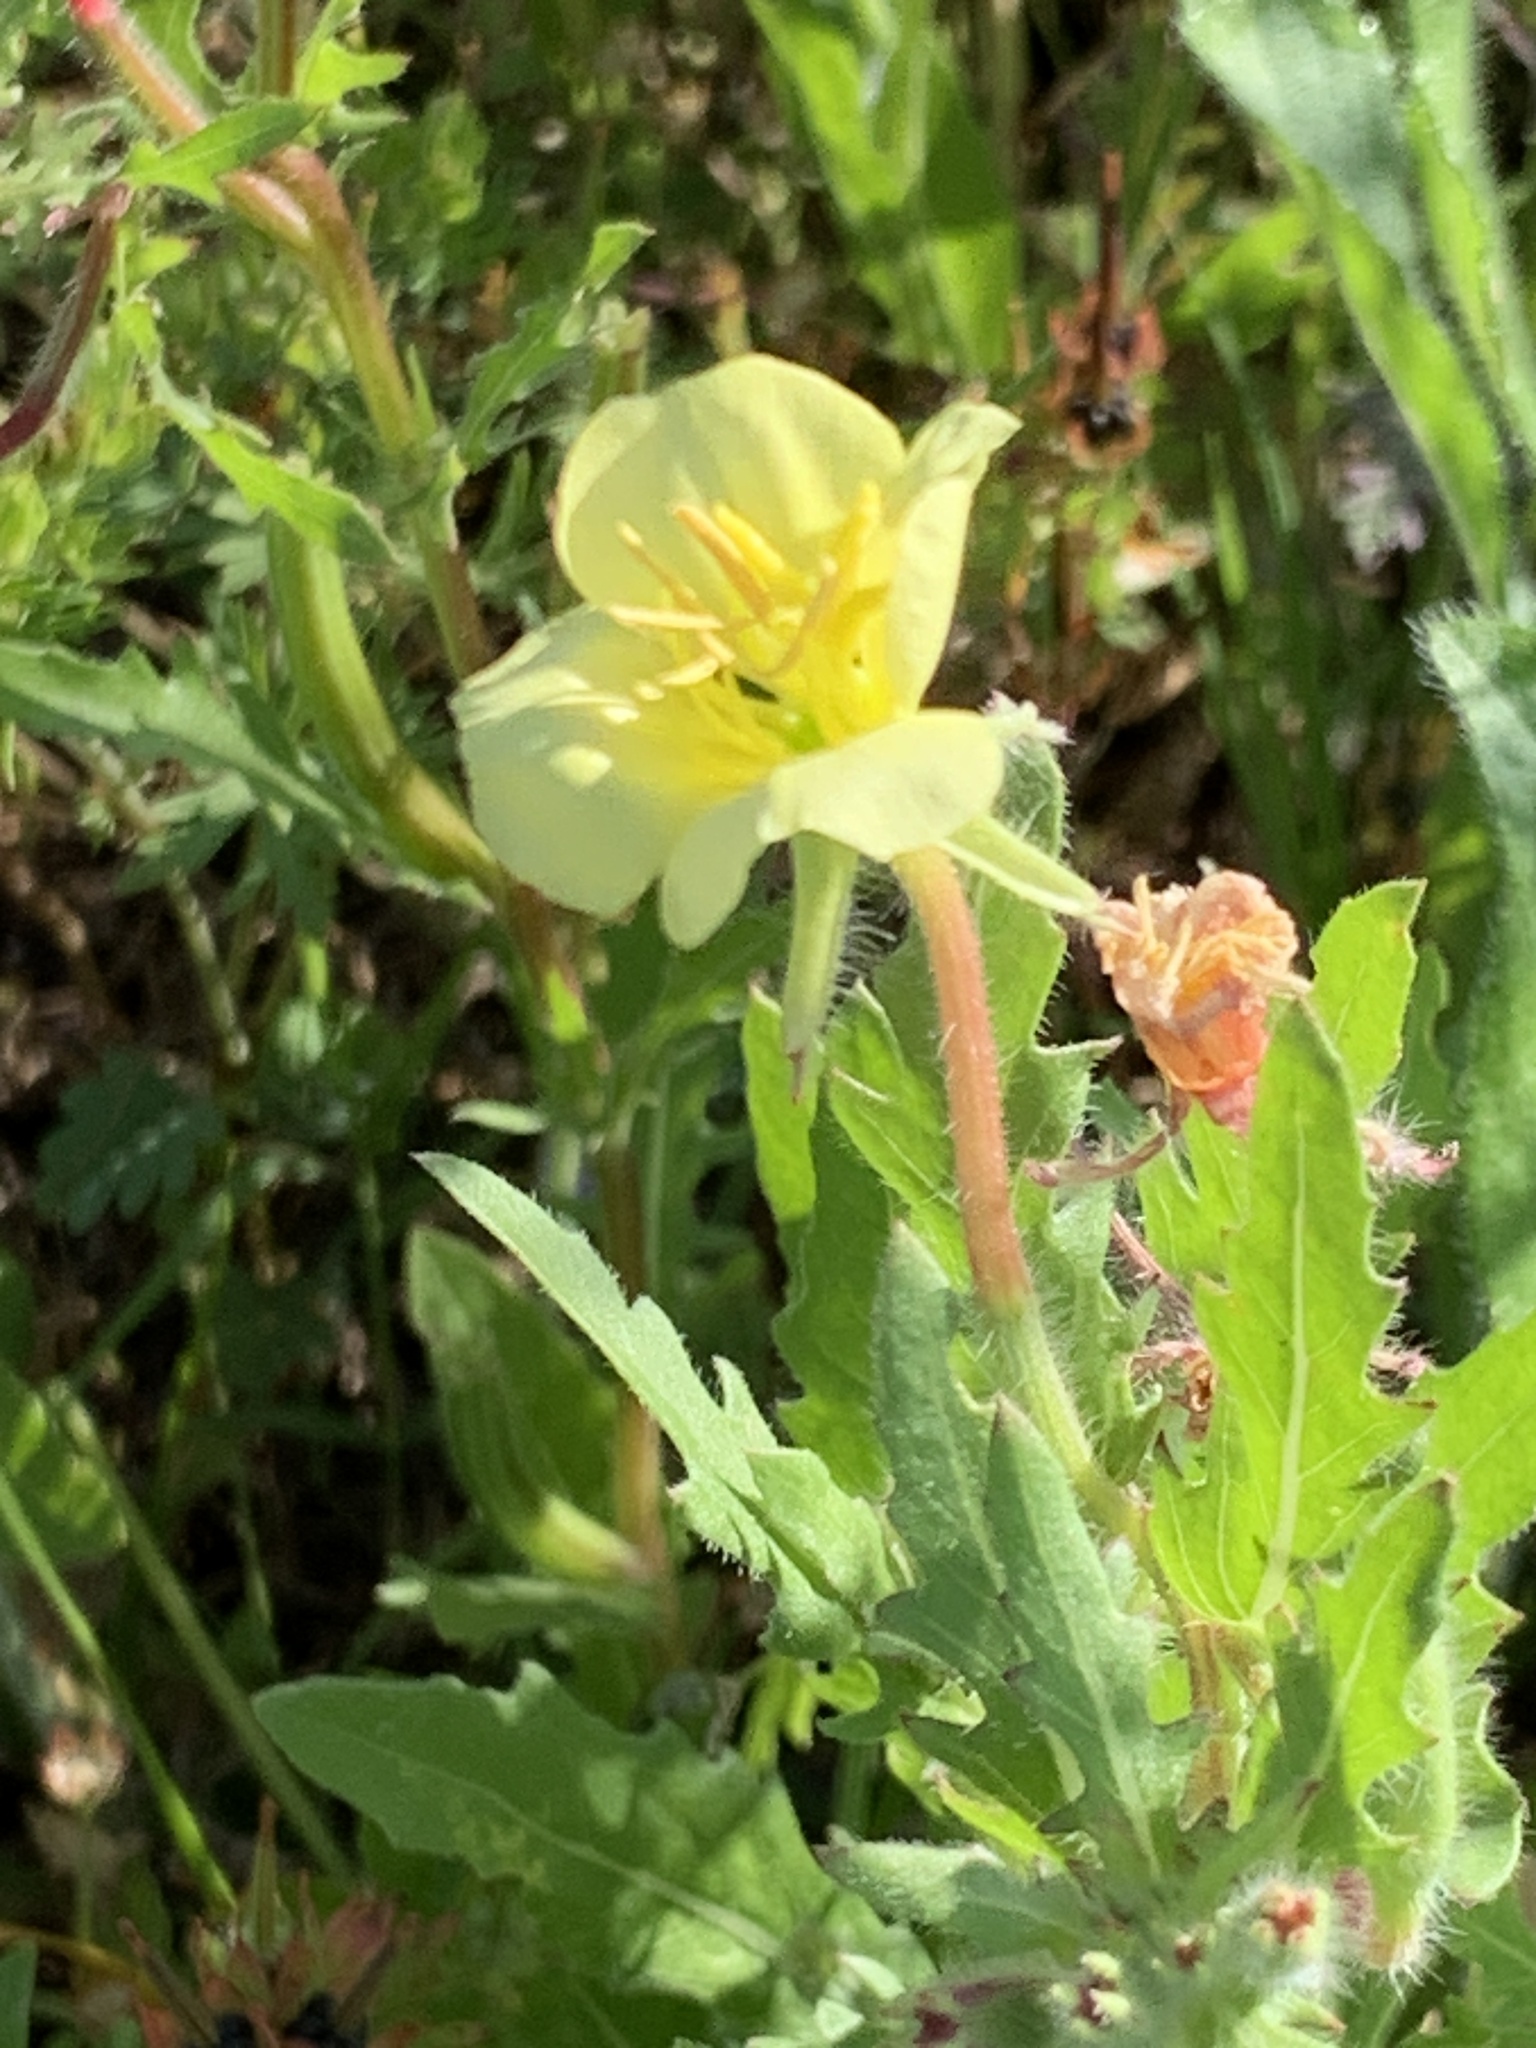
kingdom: Plantae
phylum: Tracheophyta
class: Magnoliopsida
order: Myrtales
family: Onagraceae
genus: Oenothera
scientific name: Oenothera laciniata
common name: Cut-leaved evening-primrose
